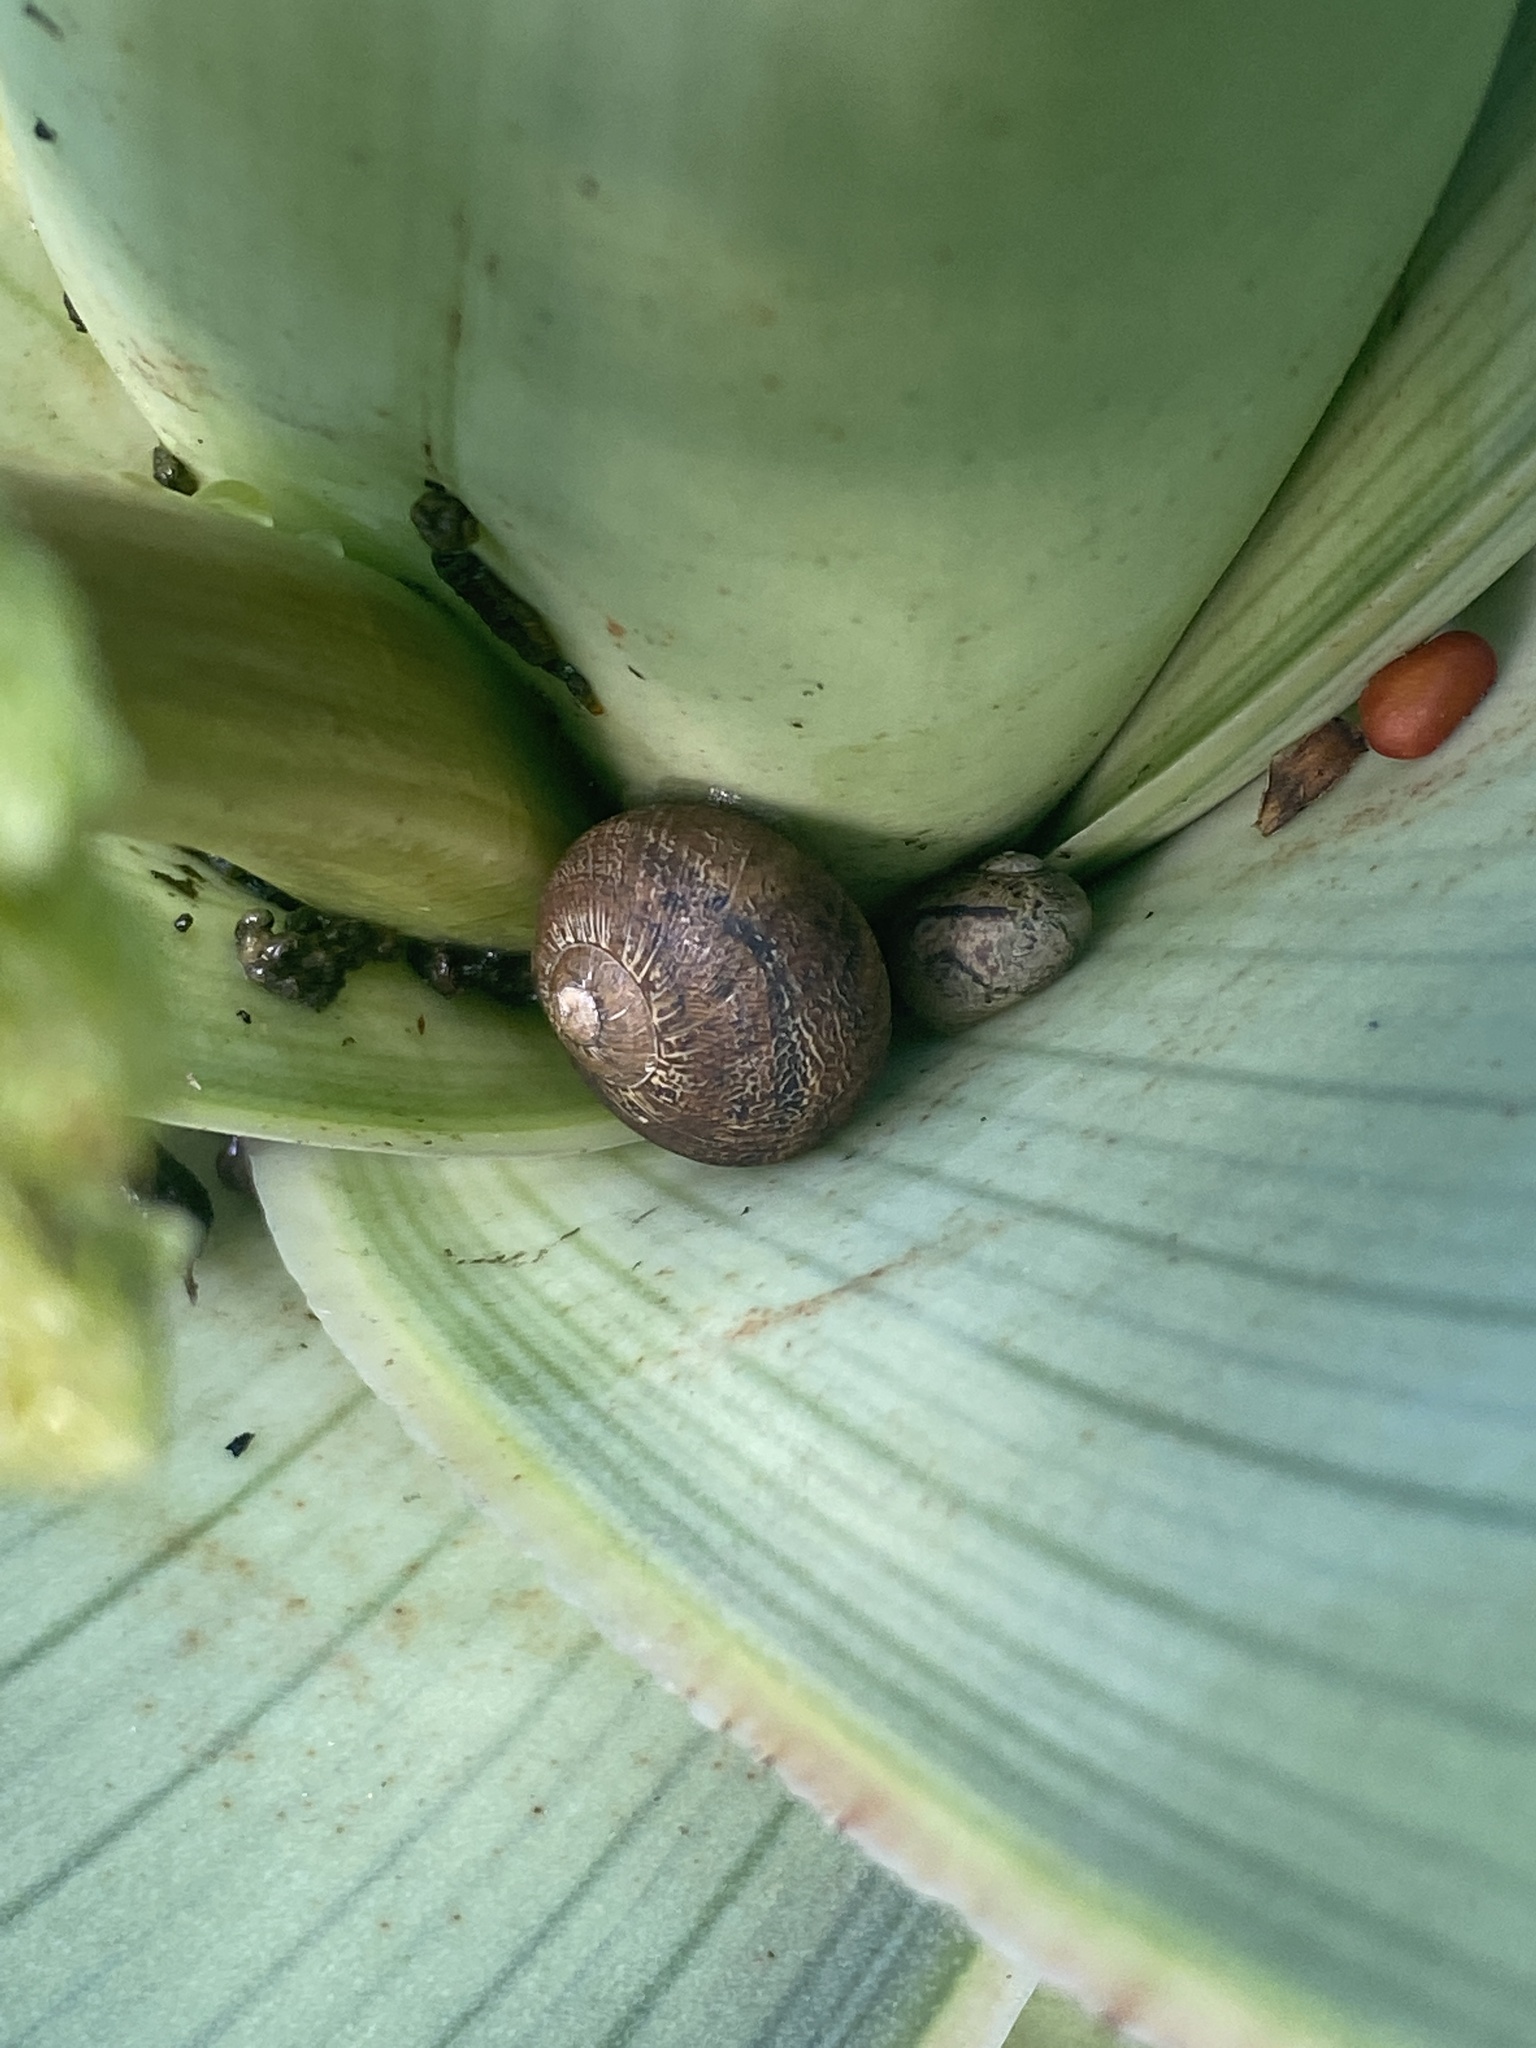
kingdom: Animalia
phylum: Mollusca
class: Gastropoda
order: Stylommatophora
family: Helicidae
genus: Cornu
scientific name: Cornu aspersum
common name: Brown garden snail
